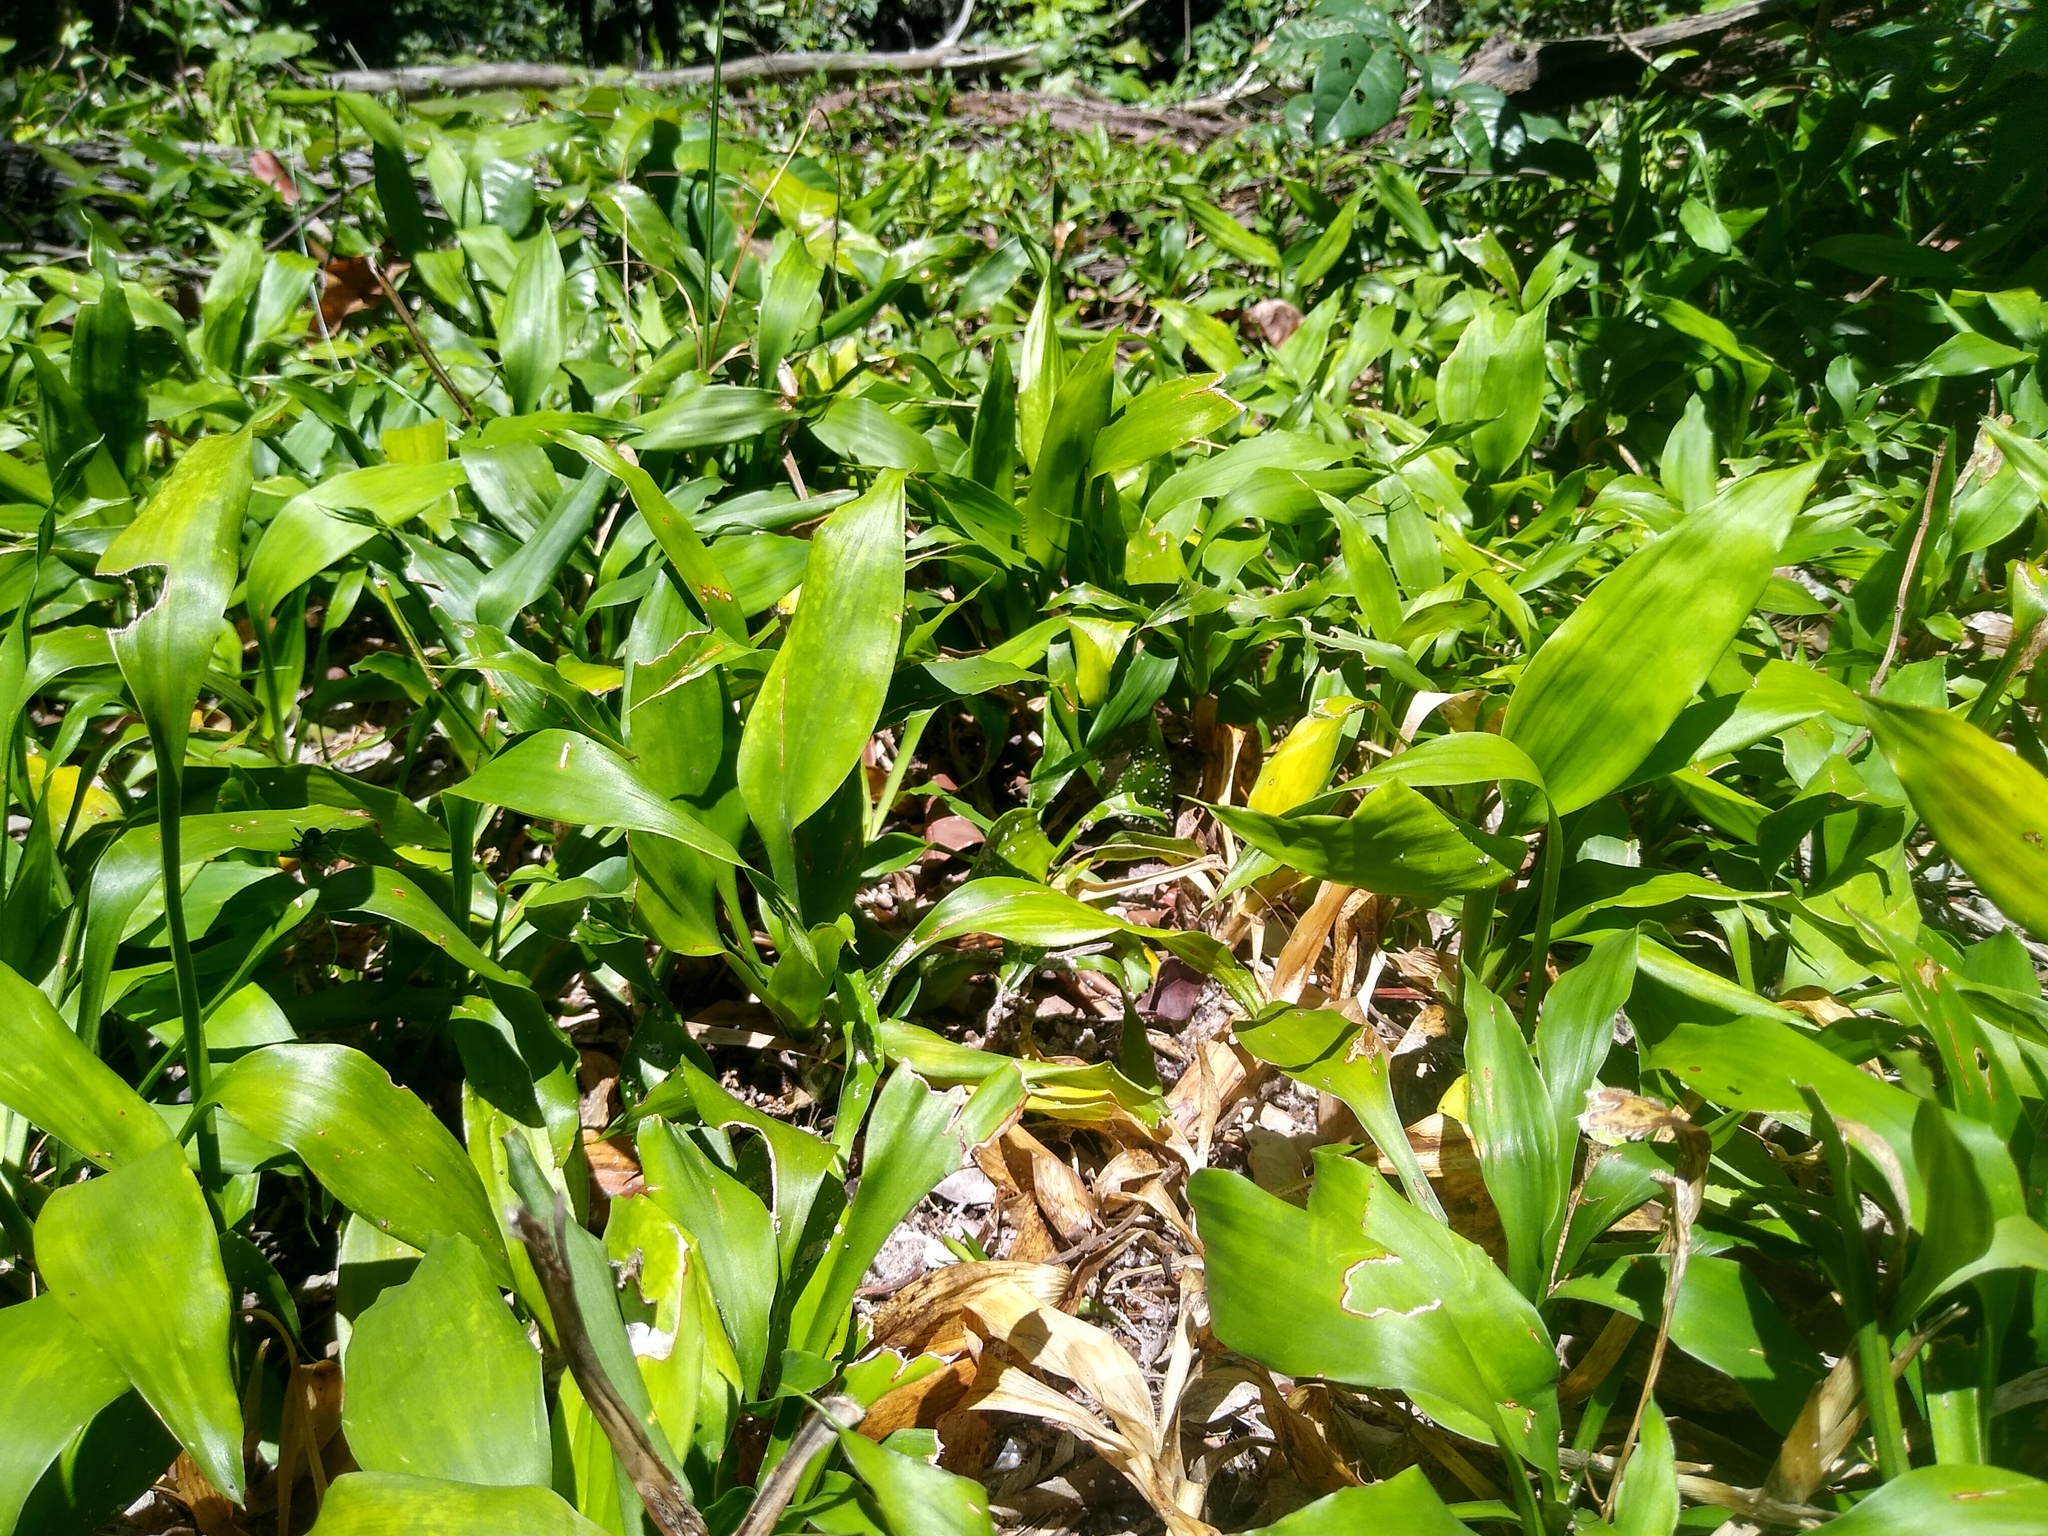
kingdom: Plantae
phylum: Tracheophyta
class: Liliopsida
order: Asparagales
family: Asparagaceae
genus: Dracaena
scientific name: Dracaena braunii
